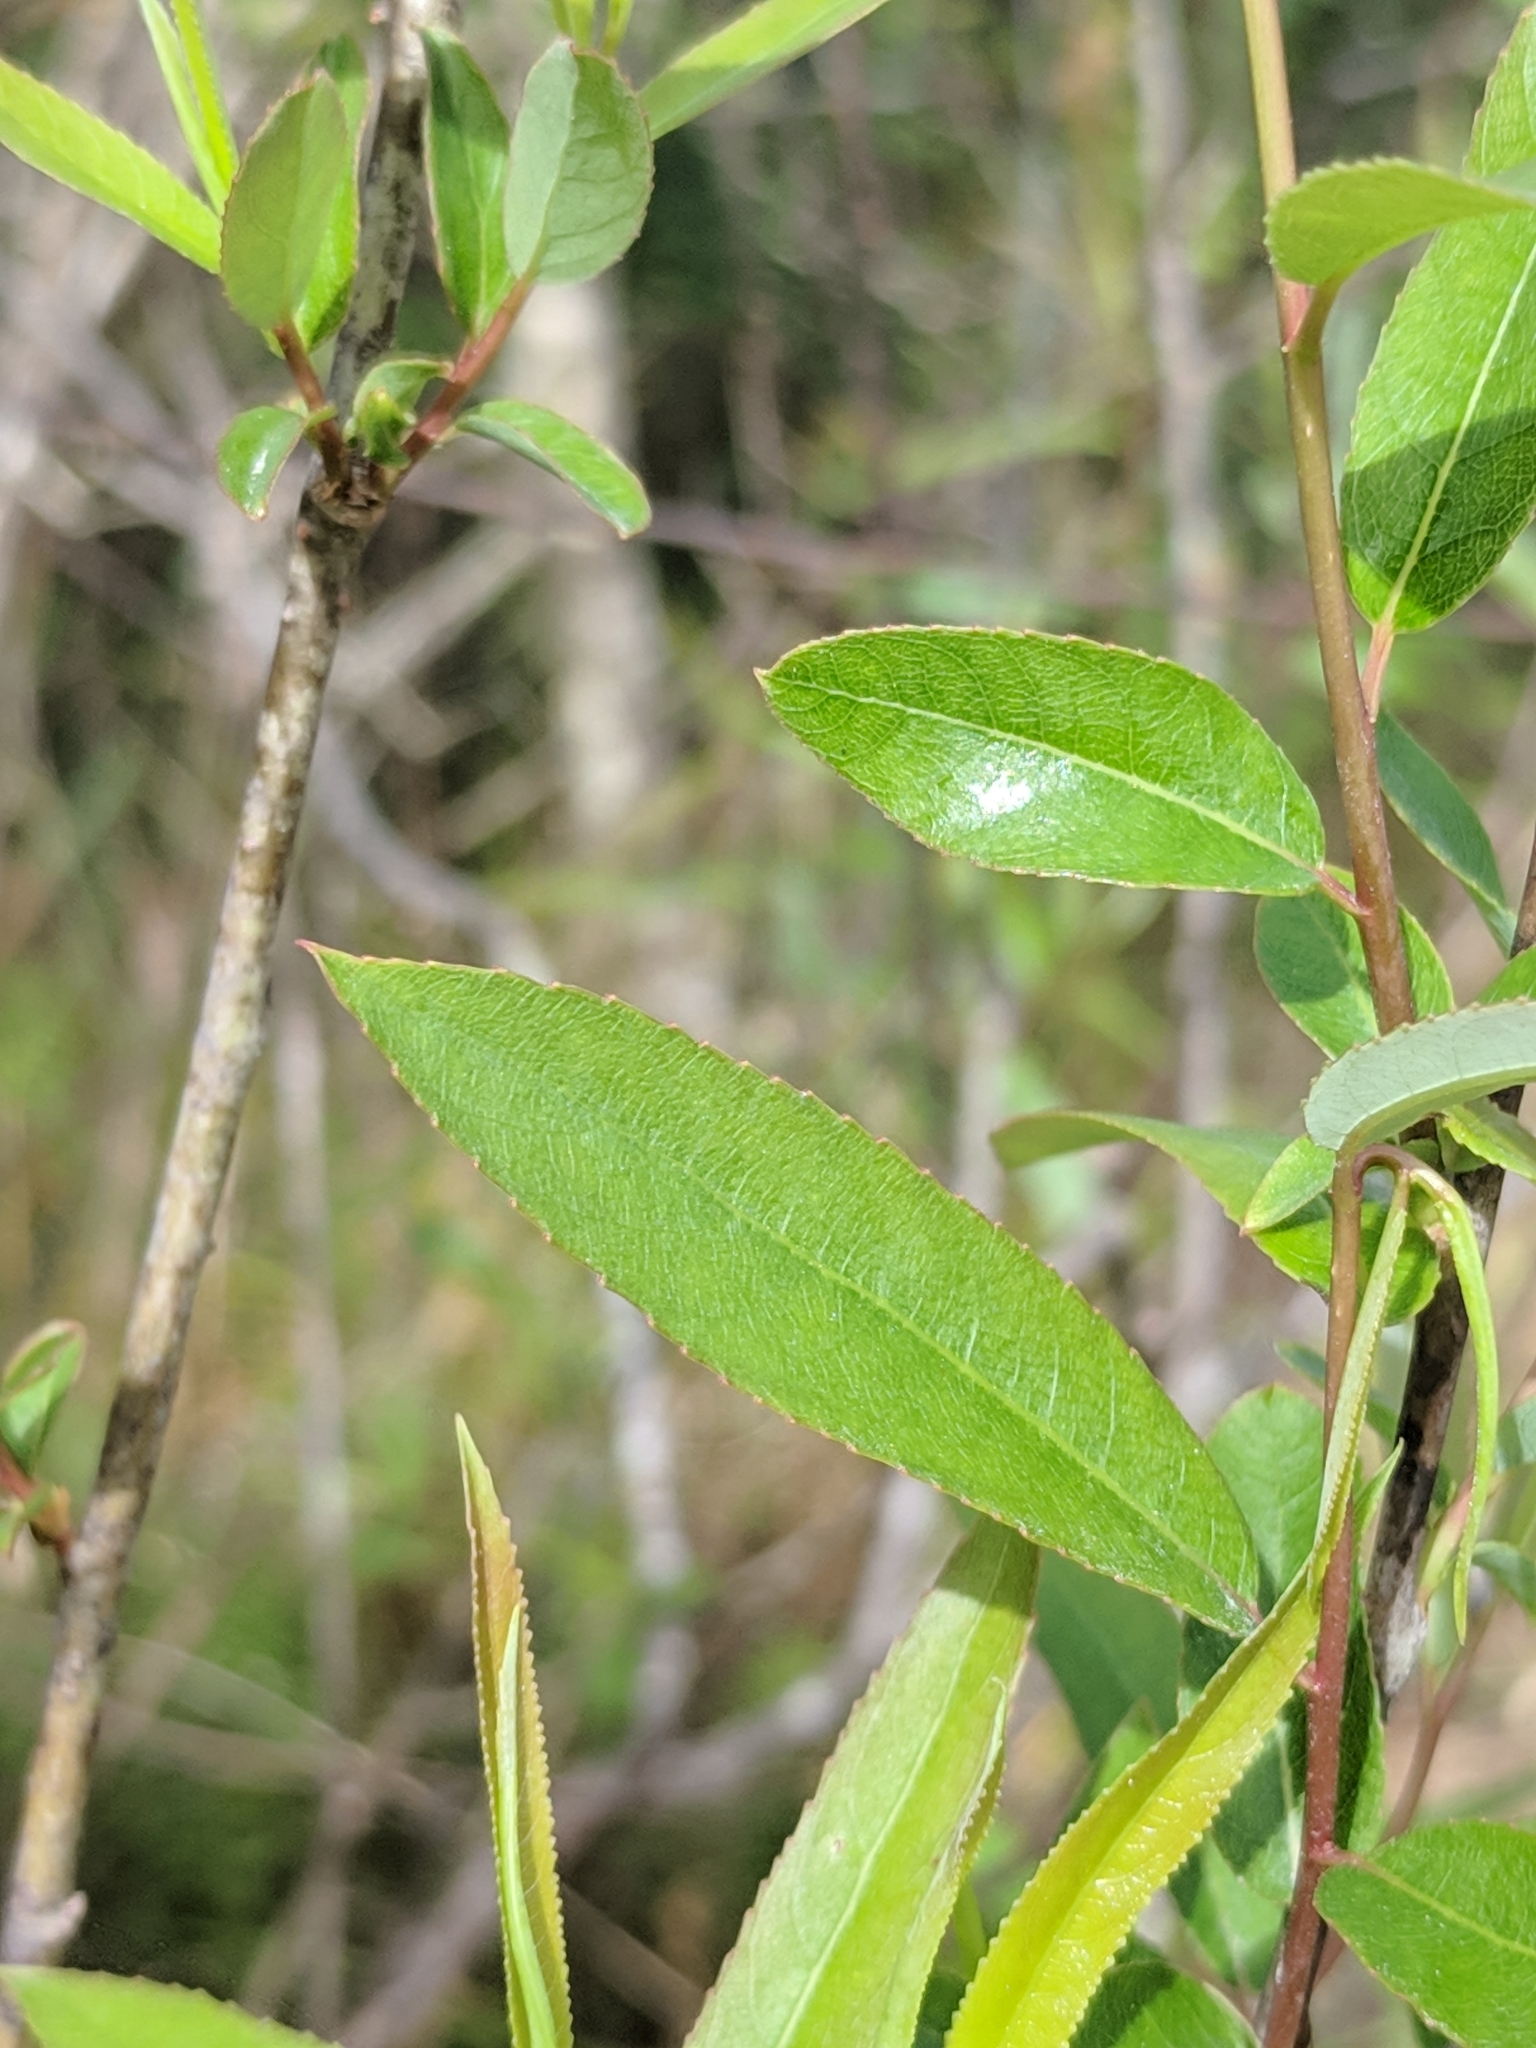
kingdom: Plantae
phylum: Tracheophyta
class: Magnoliopsida
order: Malpighiales
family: Salicaceae
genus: Salix
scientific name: Salix caroliniana
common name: Carolina willow
